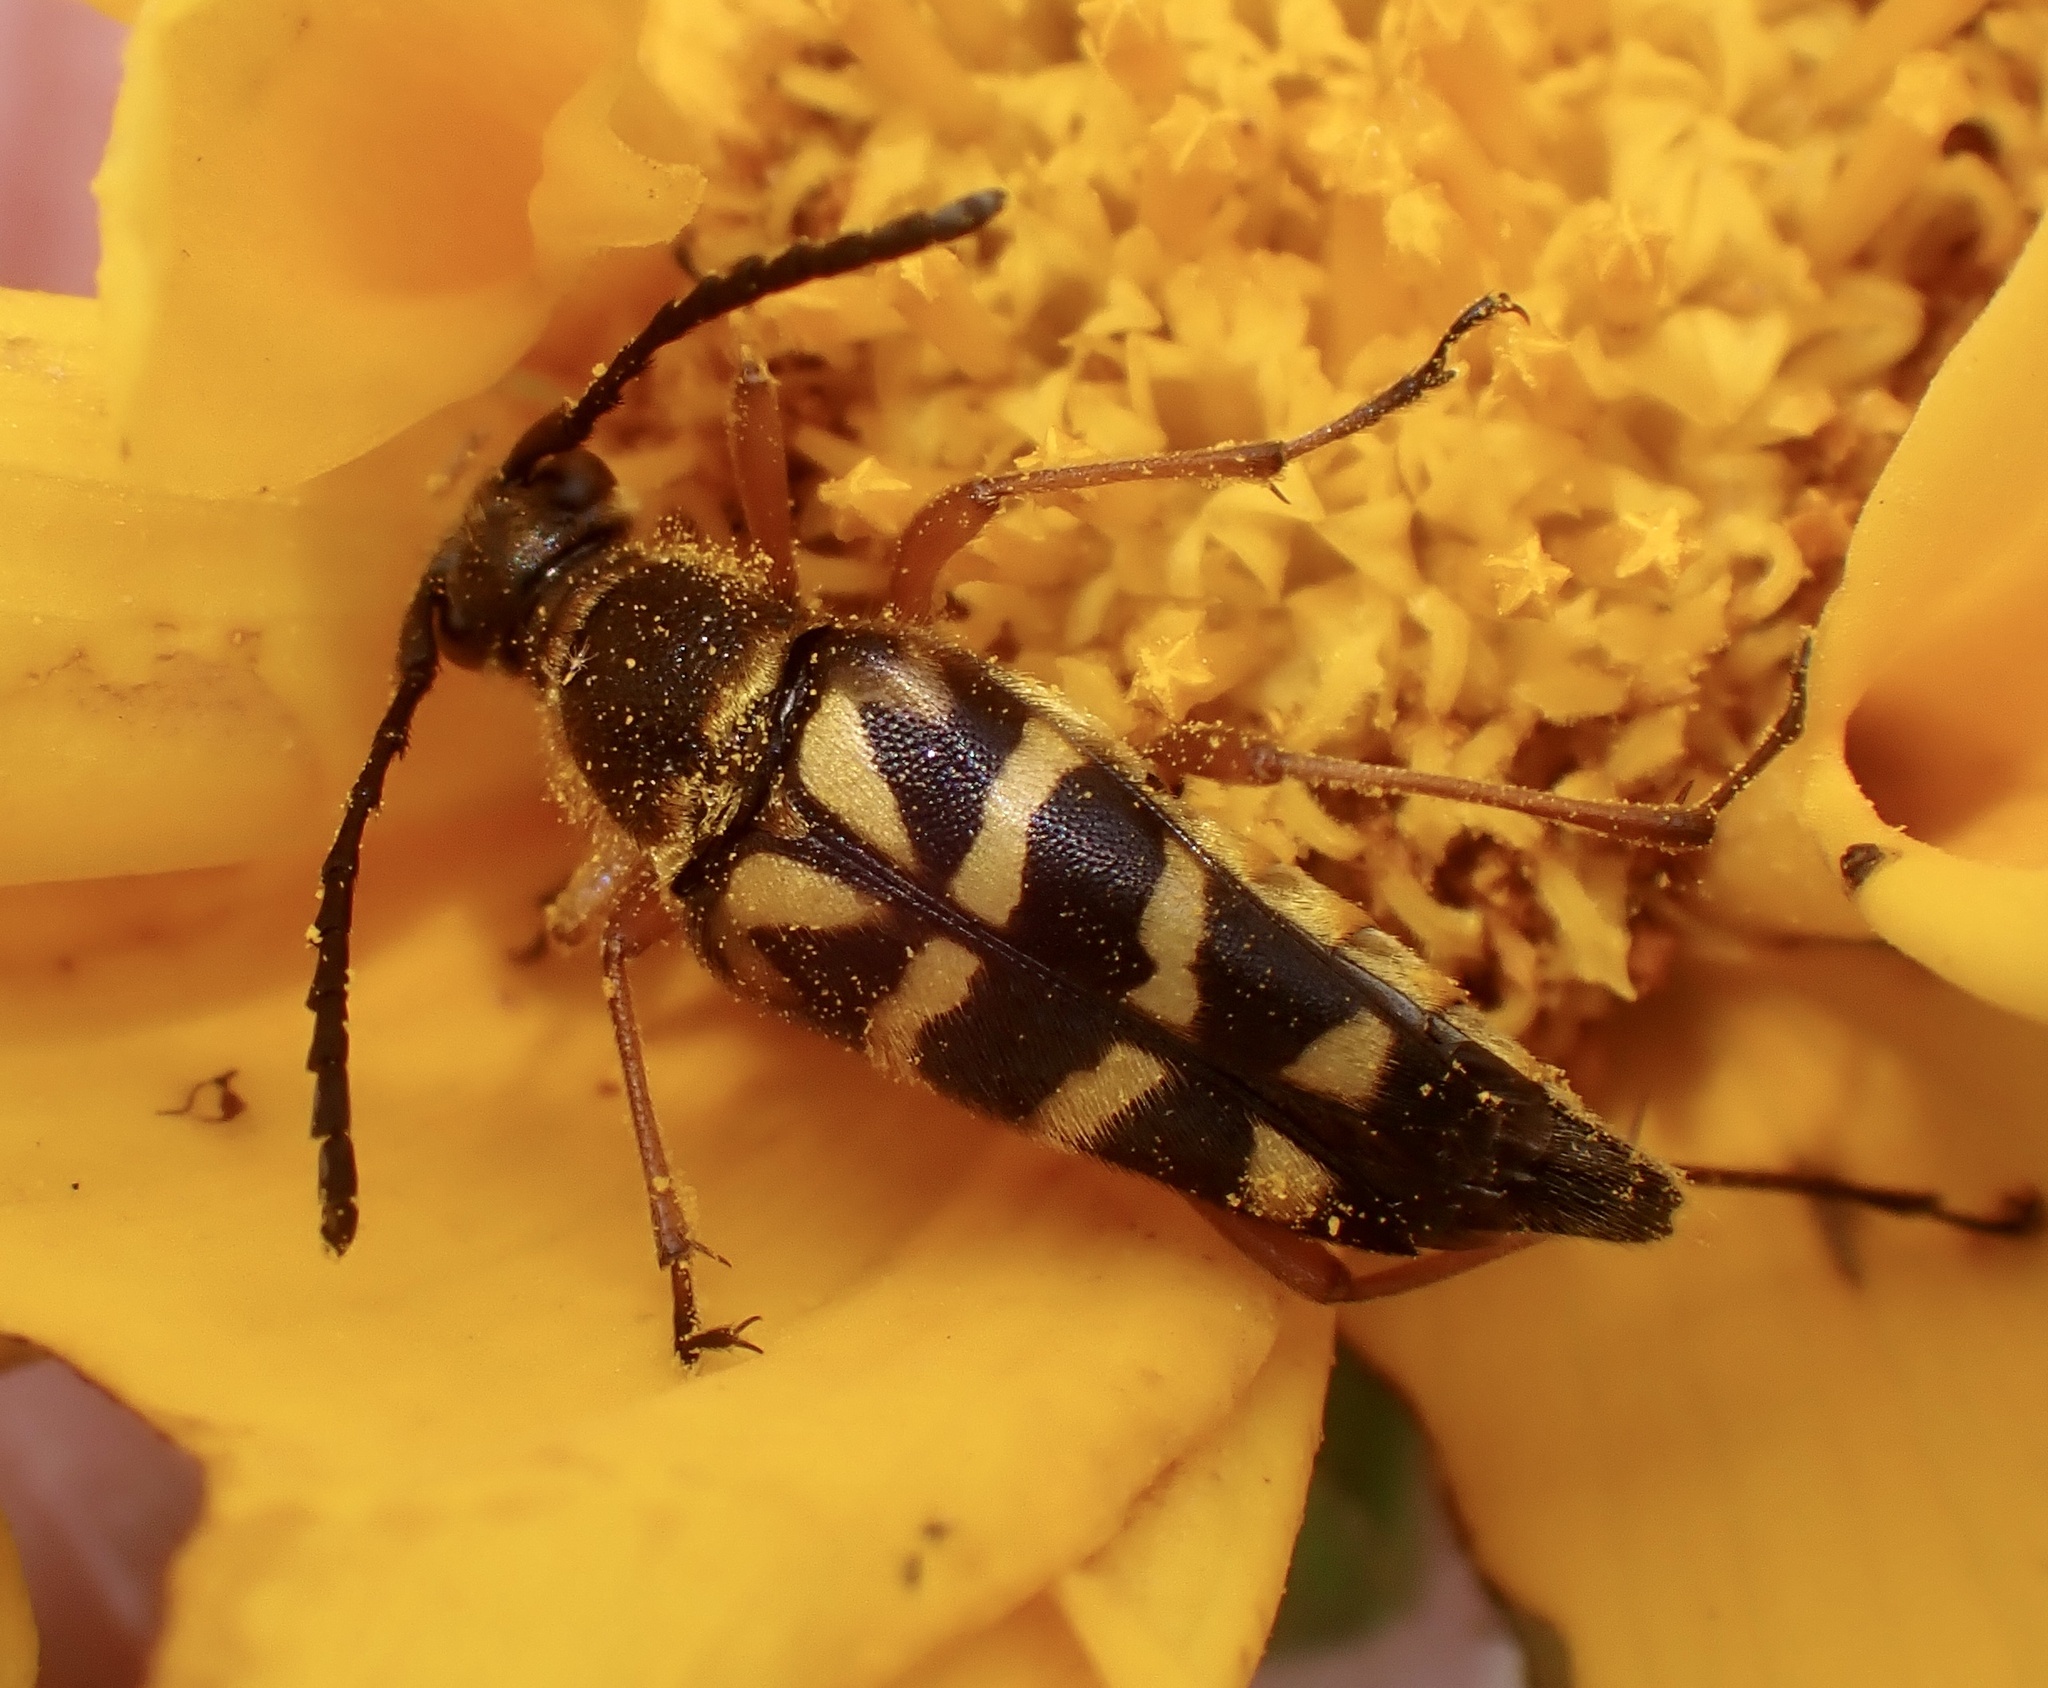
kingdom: Animalia
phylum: Arthropoda
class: Insecta
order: Coleoptera
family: Cerambycidae
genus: Typocerus
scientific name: Typocerus zebra
